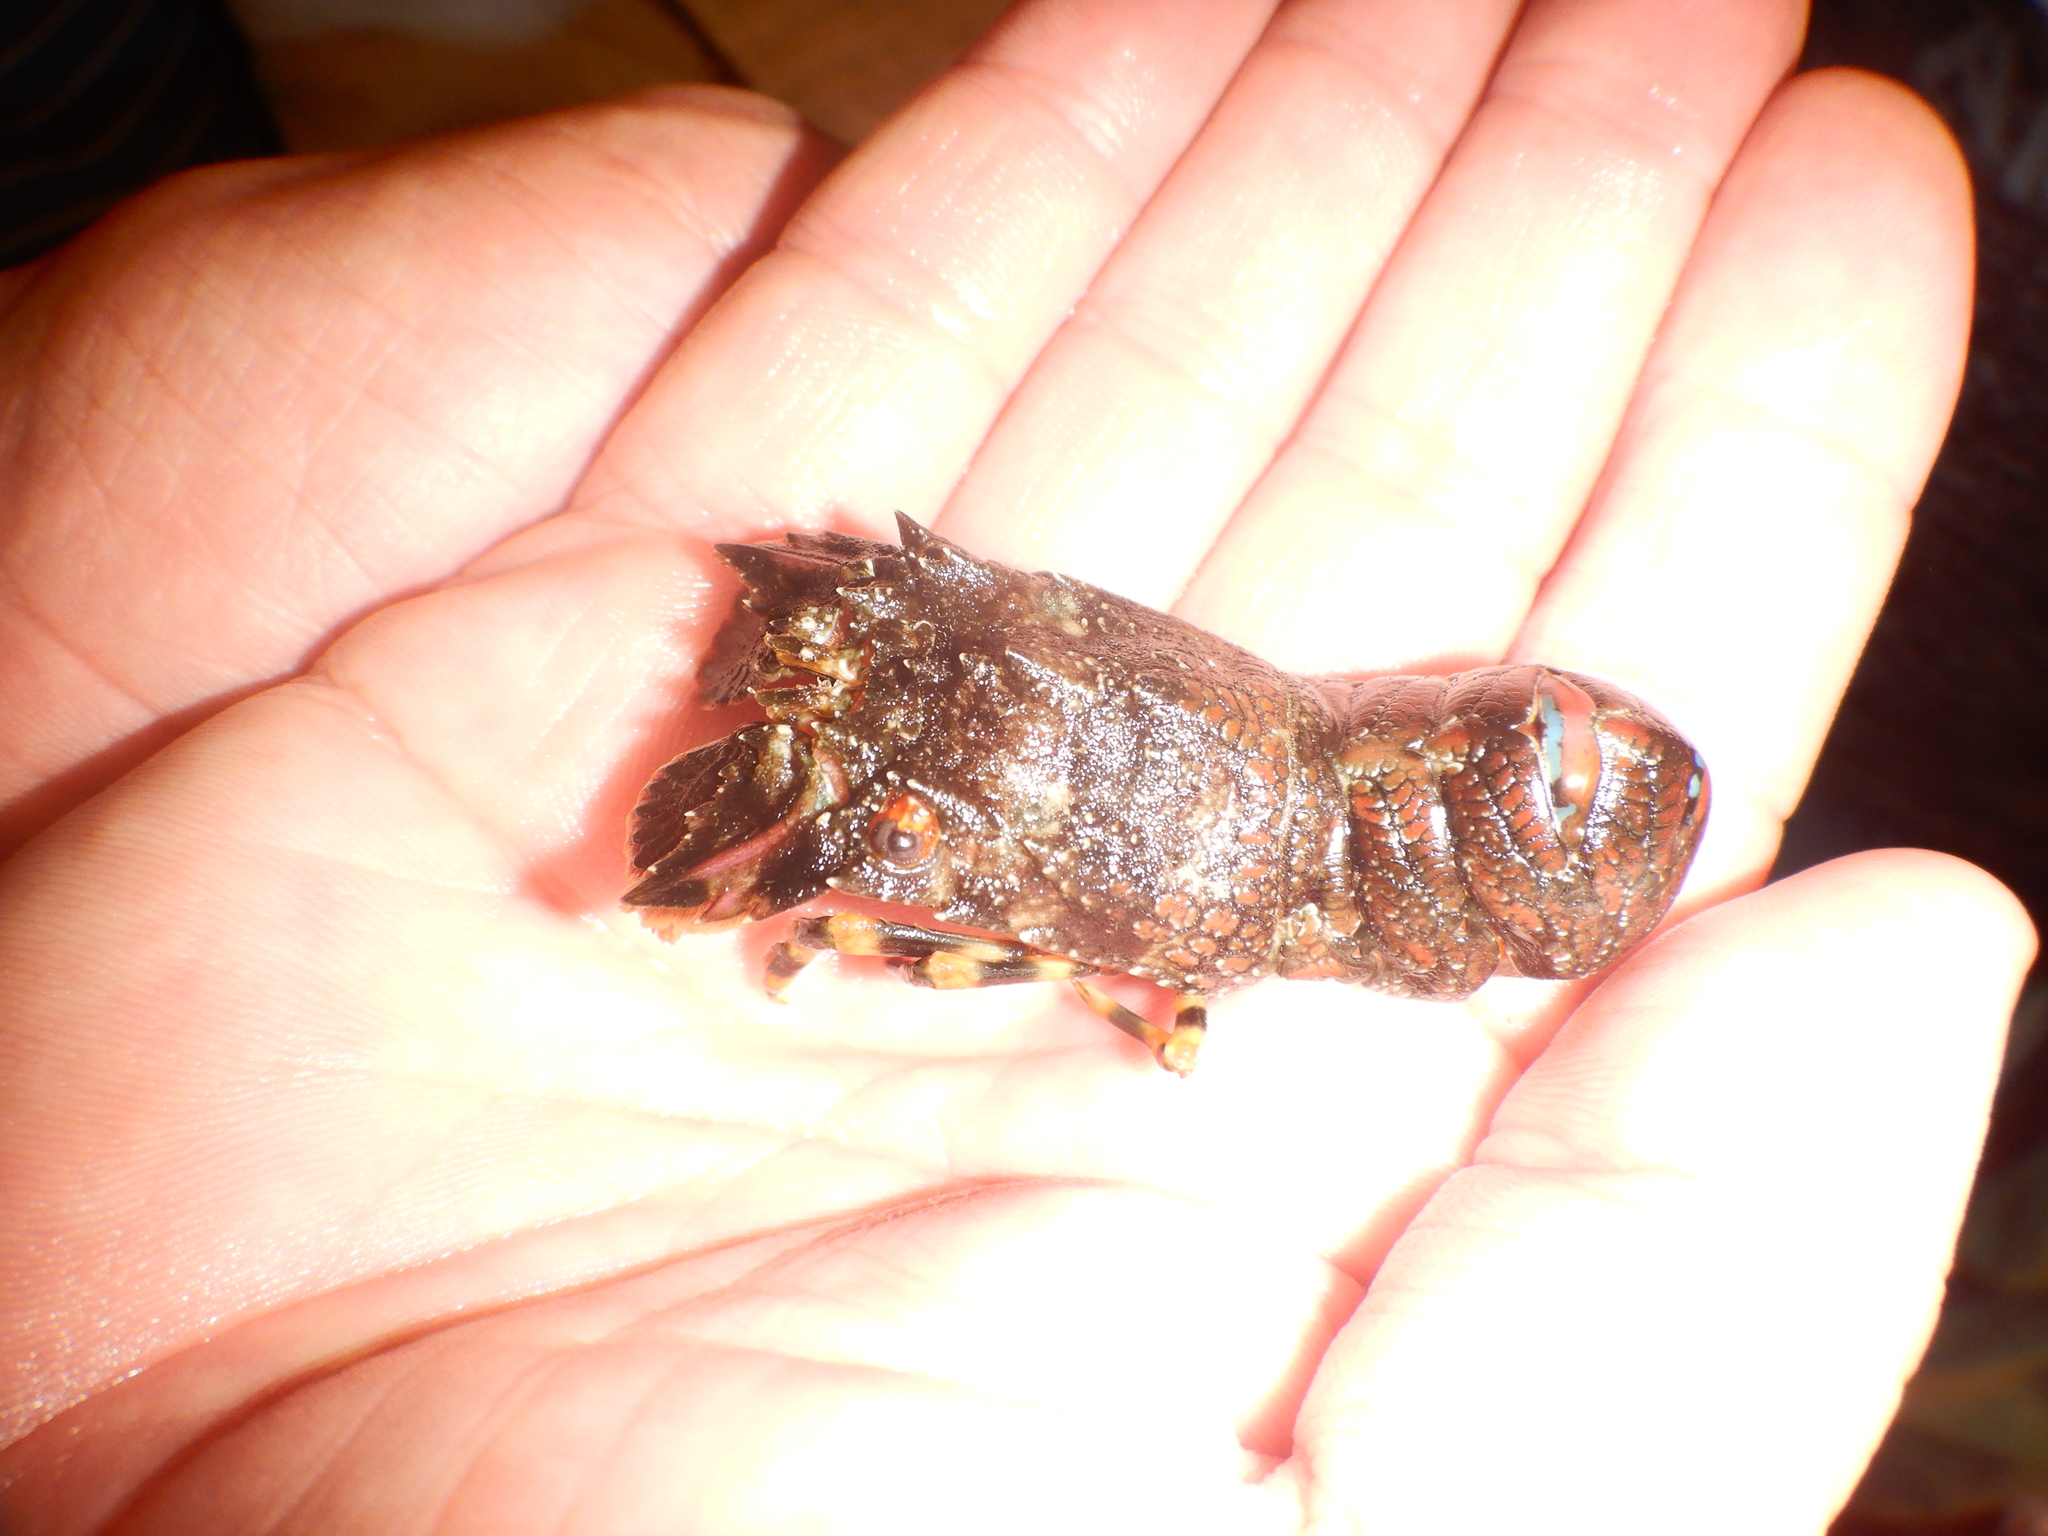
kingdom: Animalia
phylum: Arthropoda
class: Malacostraca
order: Decapoda
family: Scyllaridae
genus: Scyllarus
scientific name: Scyllarus arctus
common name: Small european locust lobster
